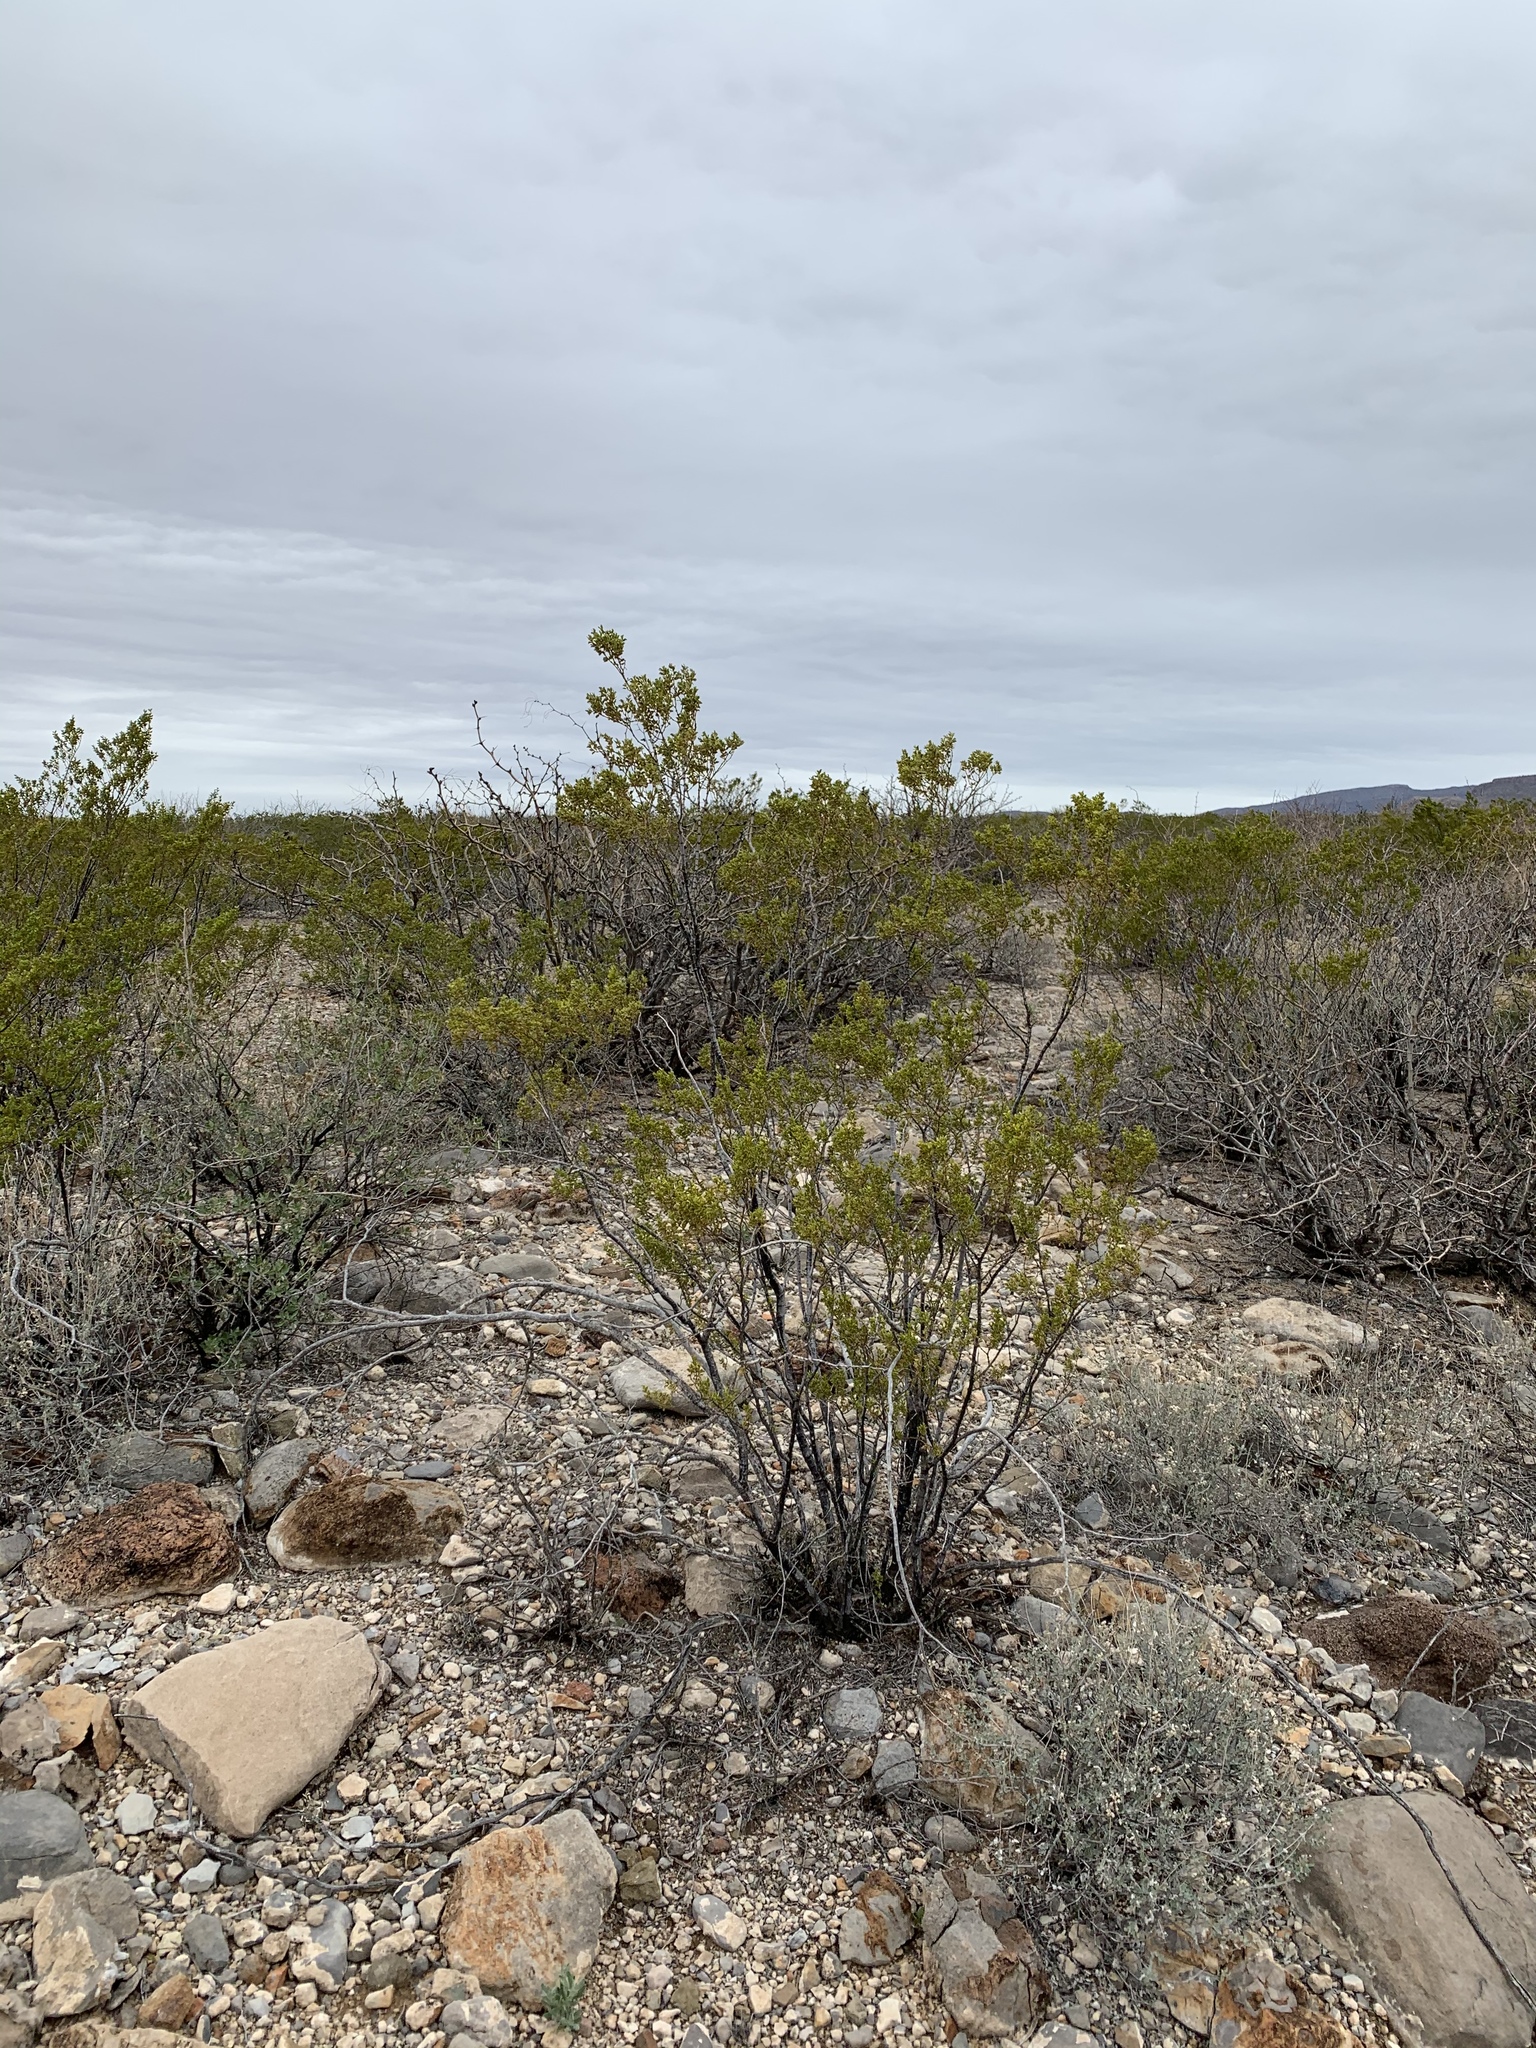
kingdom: Plantae
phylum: Tracheophyta
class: Magnoliopsida
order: Zygophyllales
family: Zygophyllaceae
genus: Larrea
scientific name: Larrea tridentata
